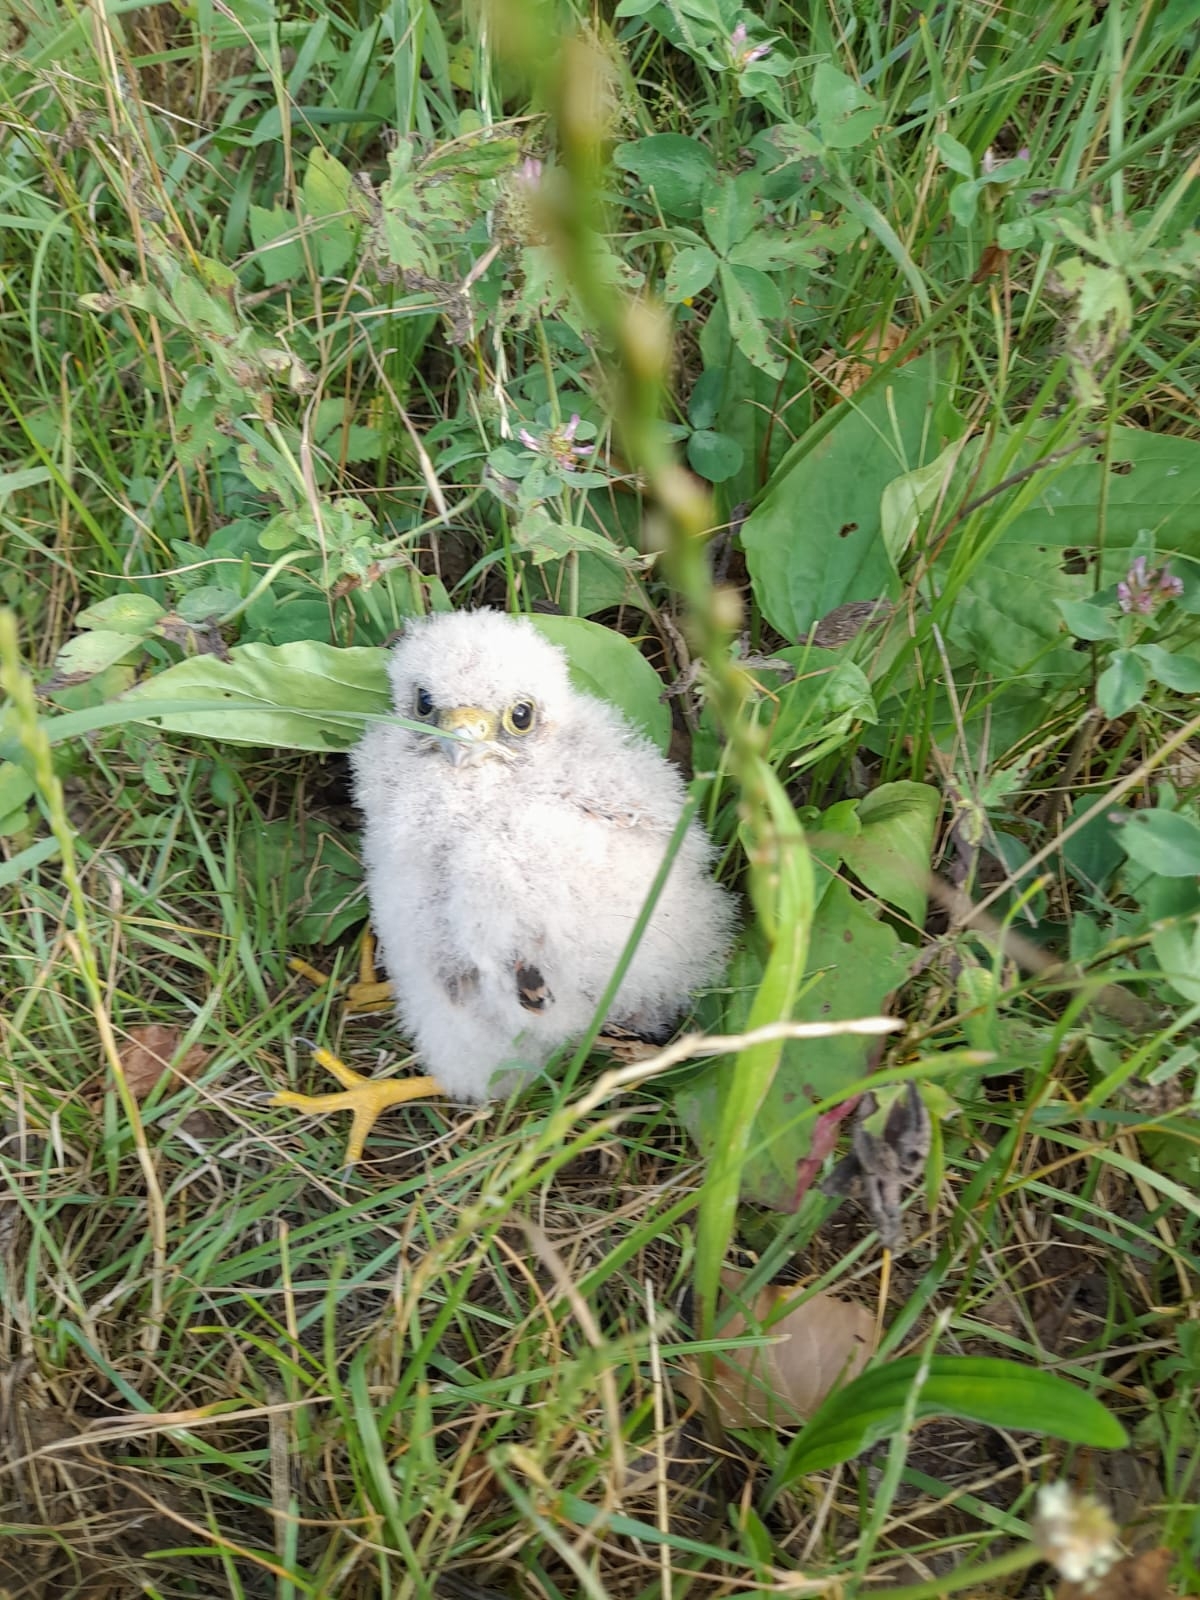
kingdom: Animalia
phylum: Chordata
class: Aves
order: Falconiformes
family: Falconidae
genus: Falco
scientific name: Falco tinnunculus
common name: Common kestrel
